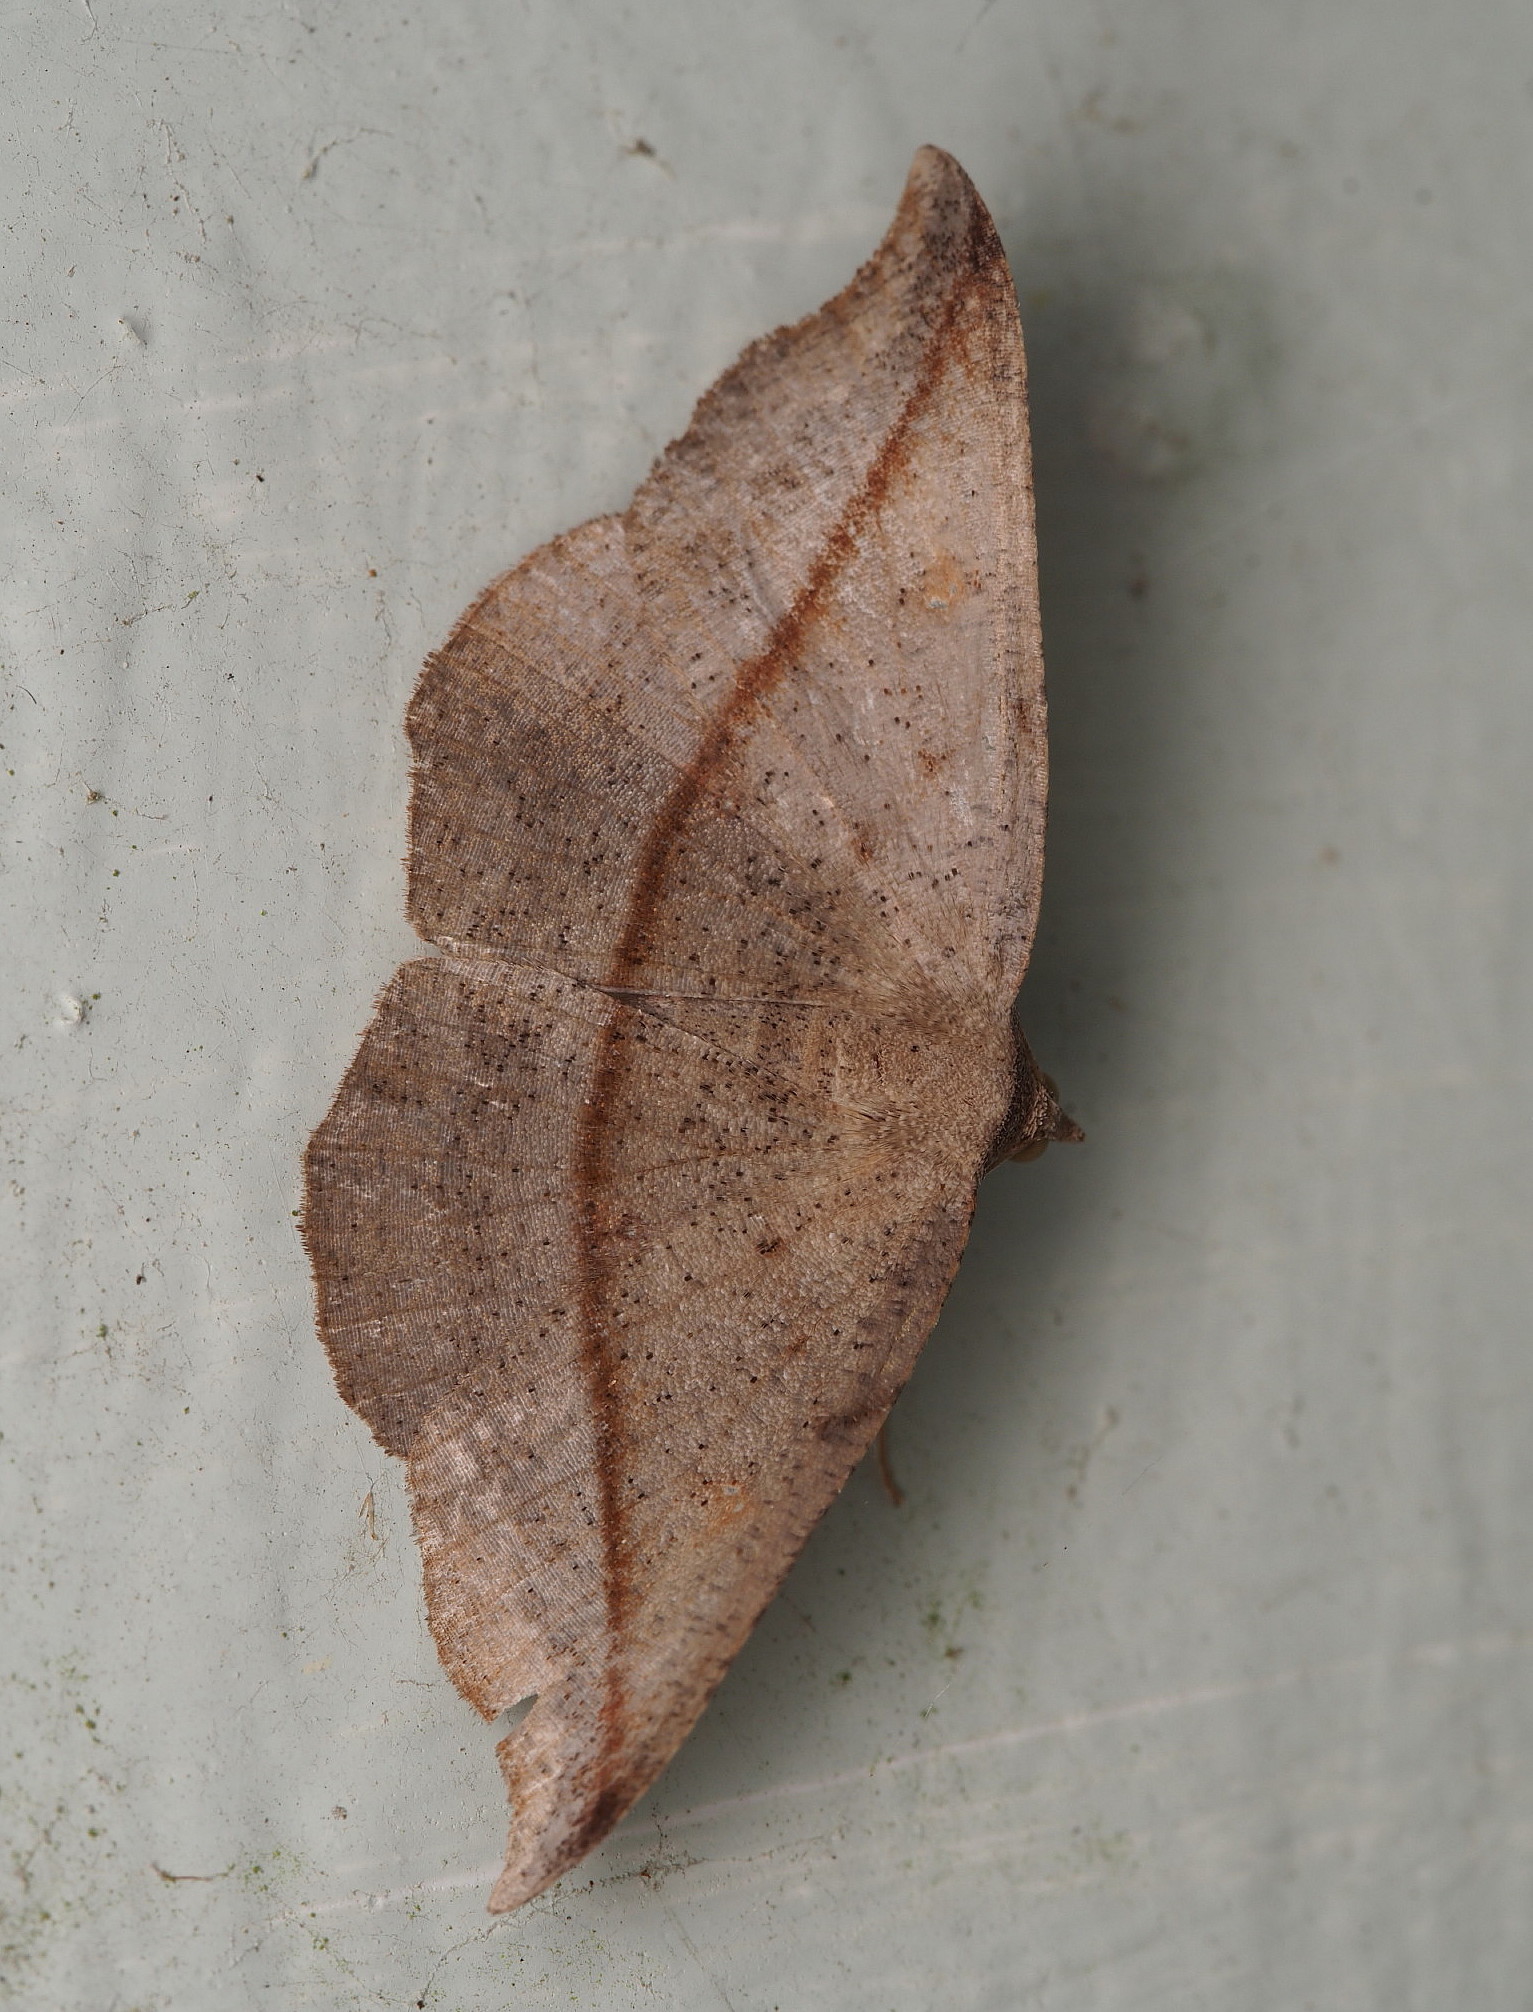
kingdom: Animalia
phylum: Arthropoda
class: Insecta
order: Lepidoptera
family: Geometridae
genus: Sarisa
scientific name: Sarisa muriferata
